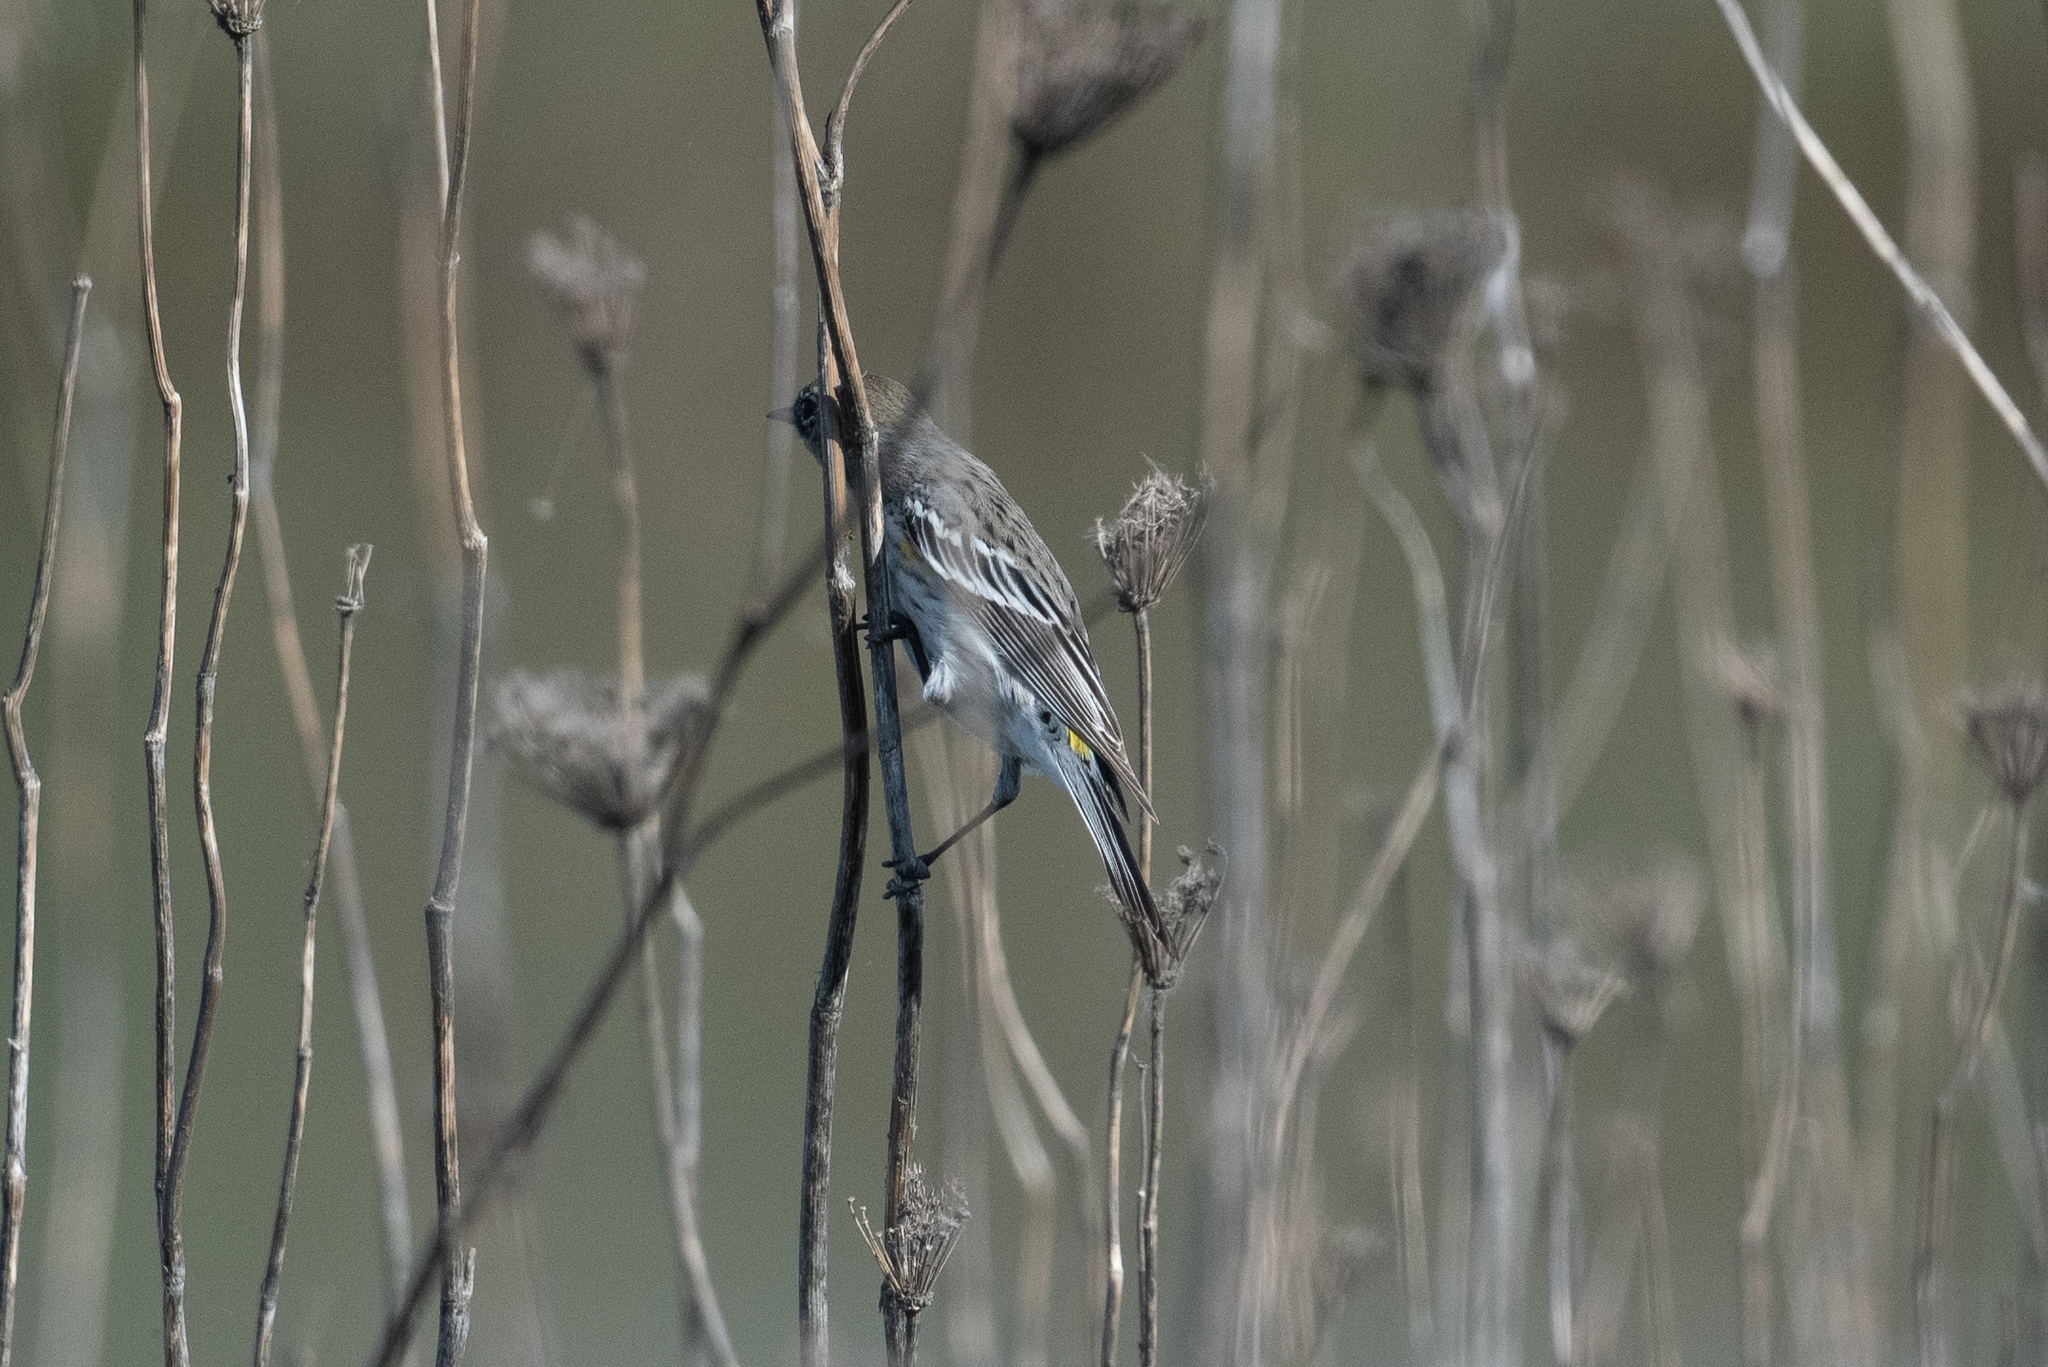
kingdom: Animalia
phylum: Chordata
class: Aves
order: Passeriformes
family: Parulidae
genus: Setophaga
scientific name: Setophaga coronata
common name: Myrtle warbler
